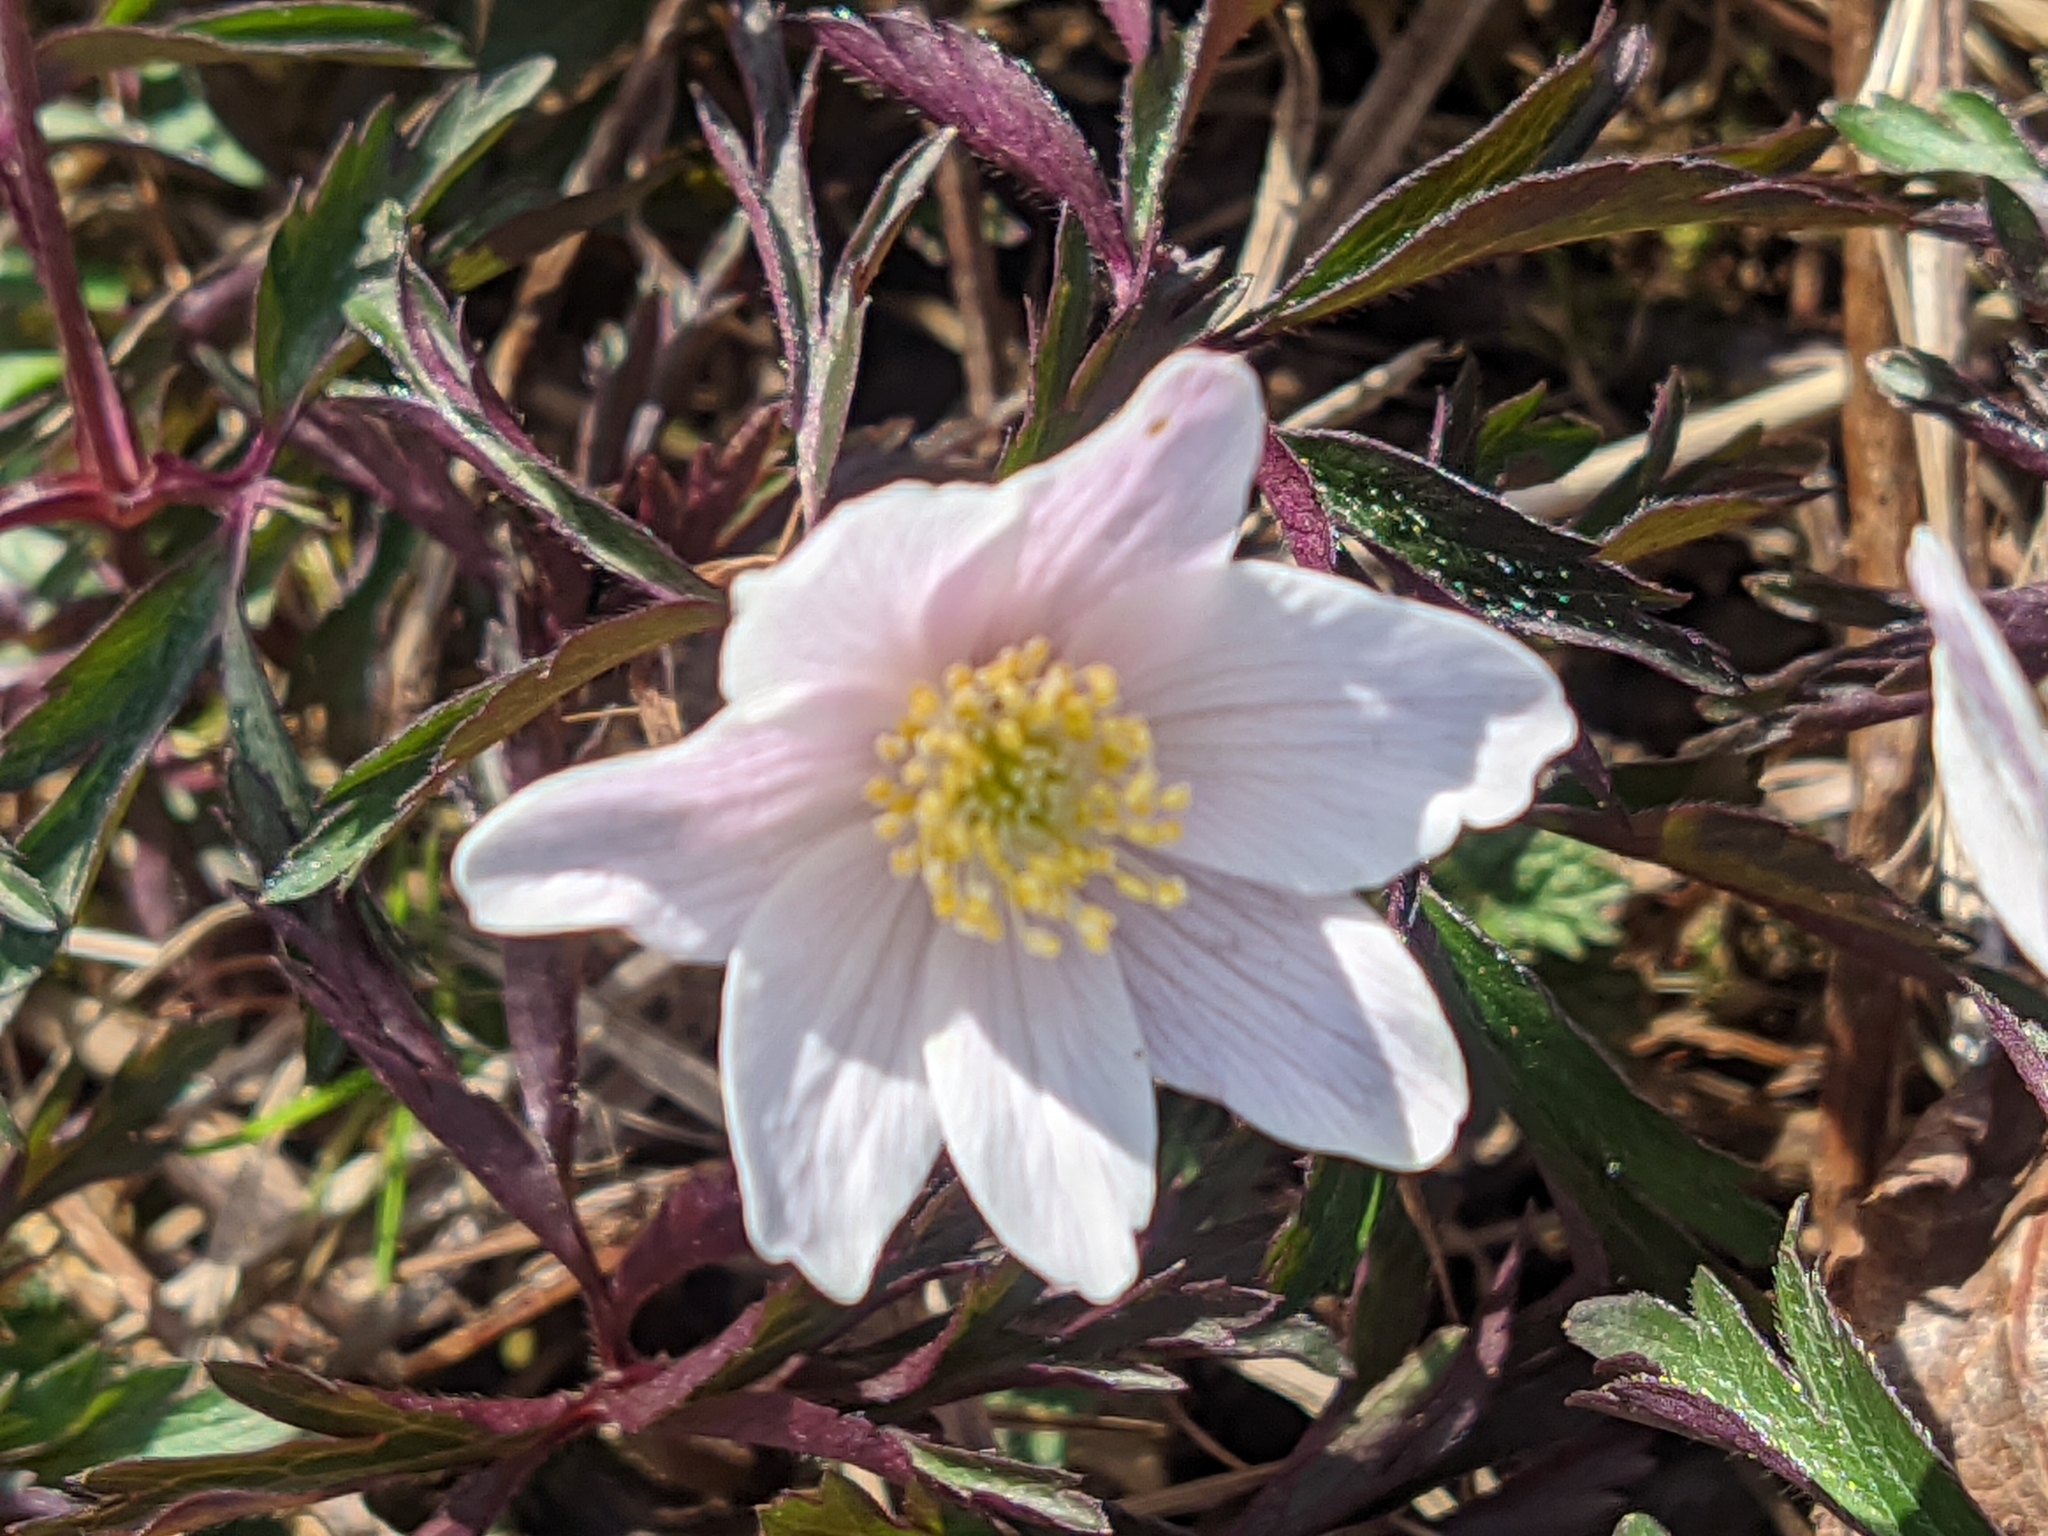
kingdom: Plantae
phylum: Tracheophyta
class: Magnoliopsida
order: Ranunculales
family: Ranunculaceae
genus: Anemone
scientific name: Anemone nemorosa
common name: Wood anemone
